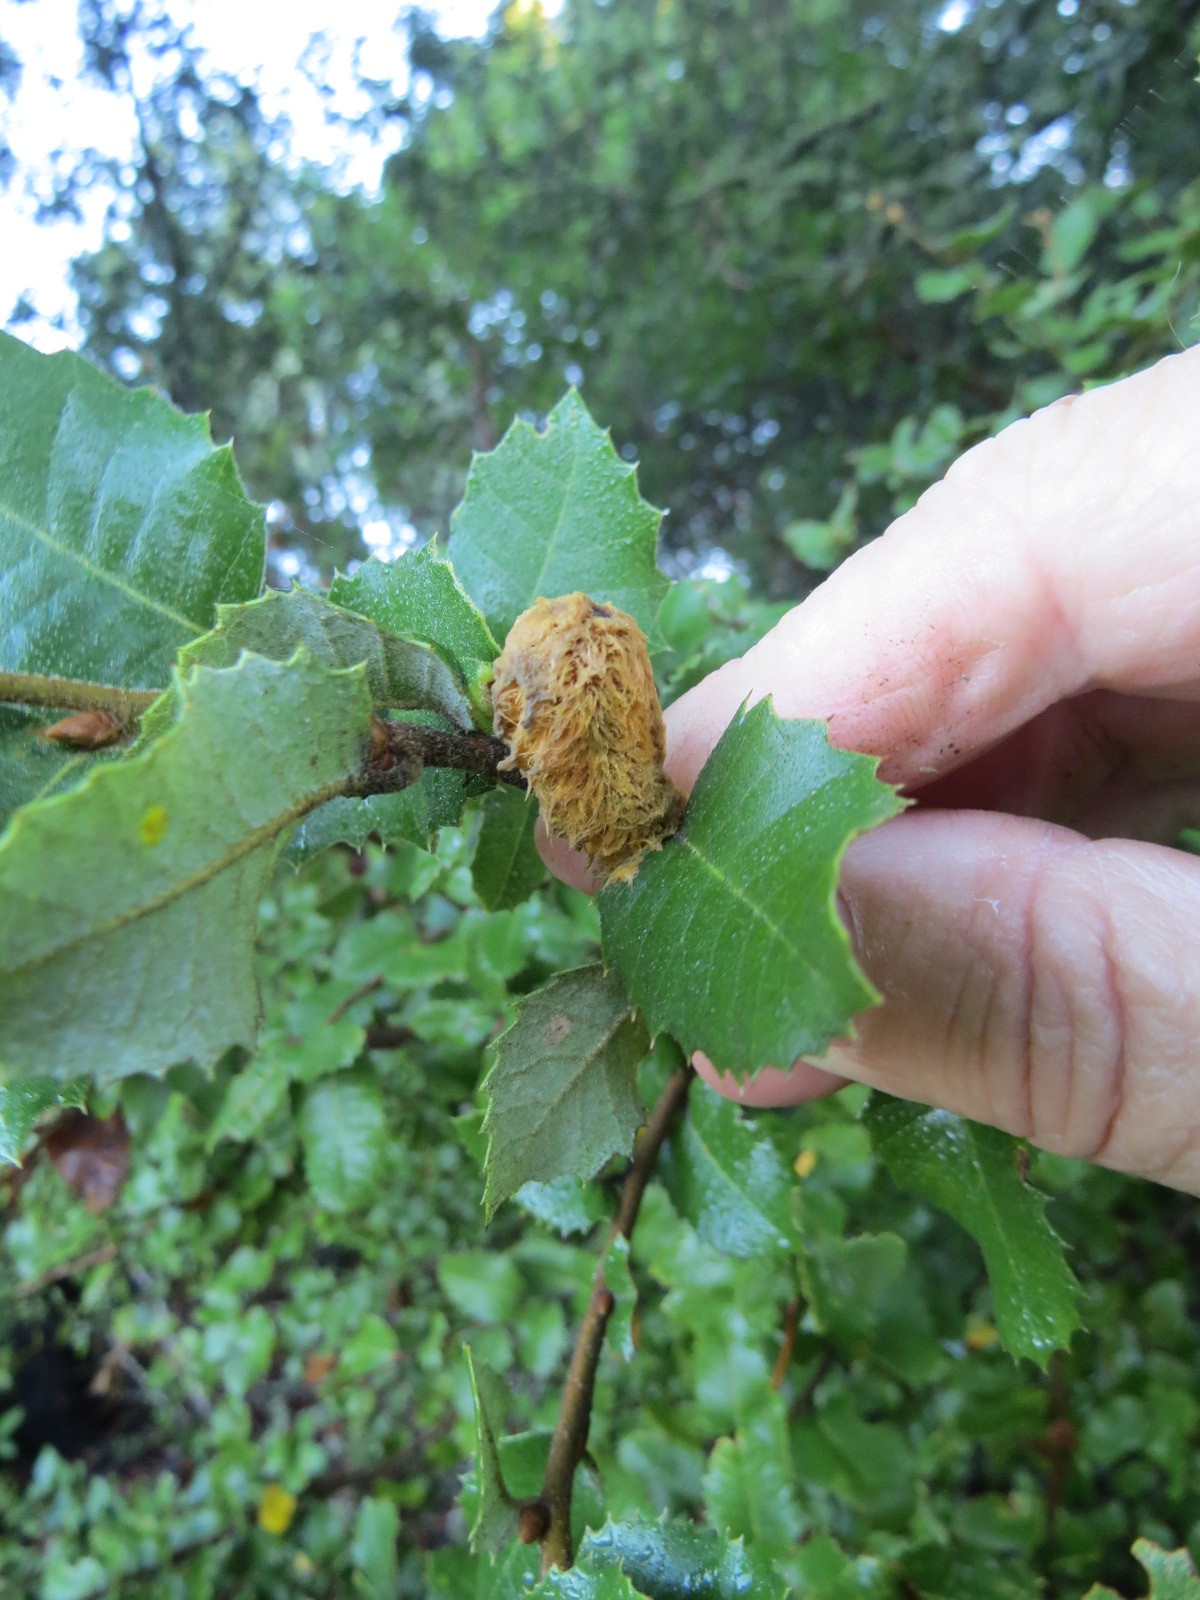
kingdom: Animalia
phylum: Arthropoda
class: Insecta
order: Hymenoptera
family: Cynipidae
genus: Heteroecus
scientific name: Heteroecus
